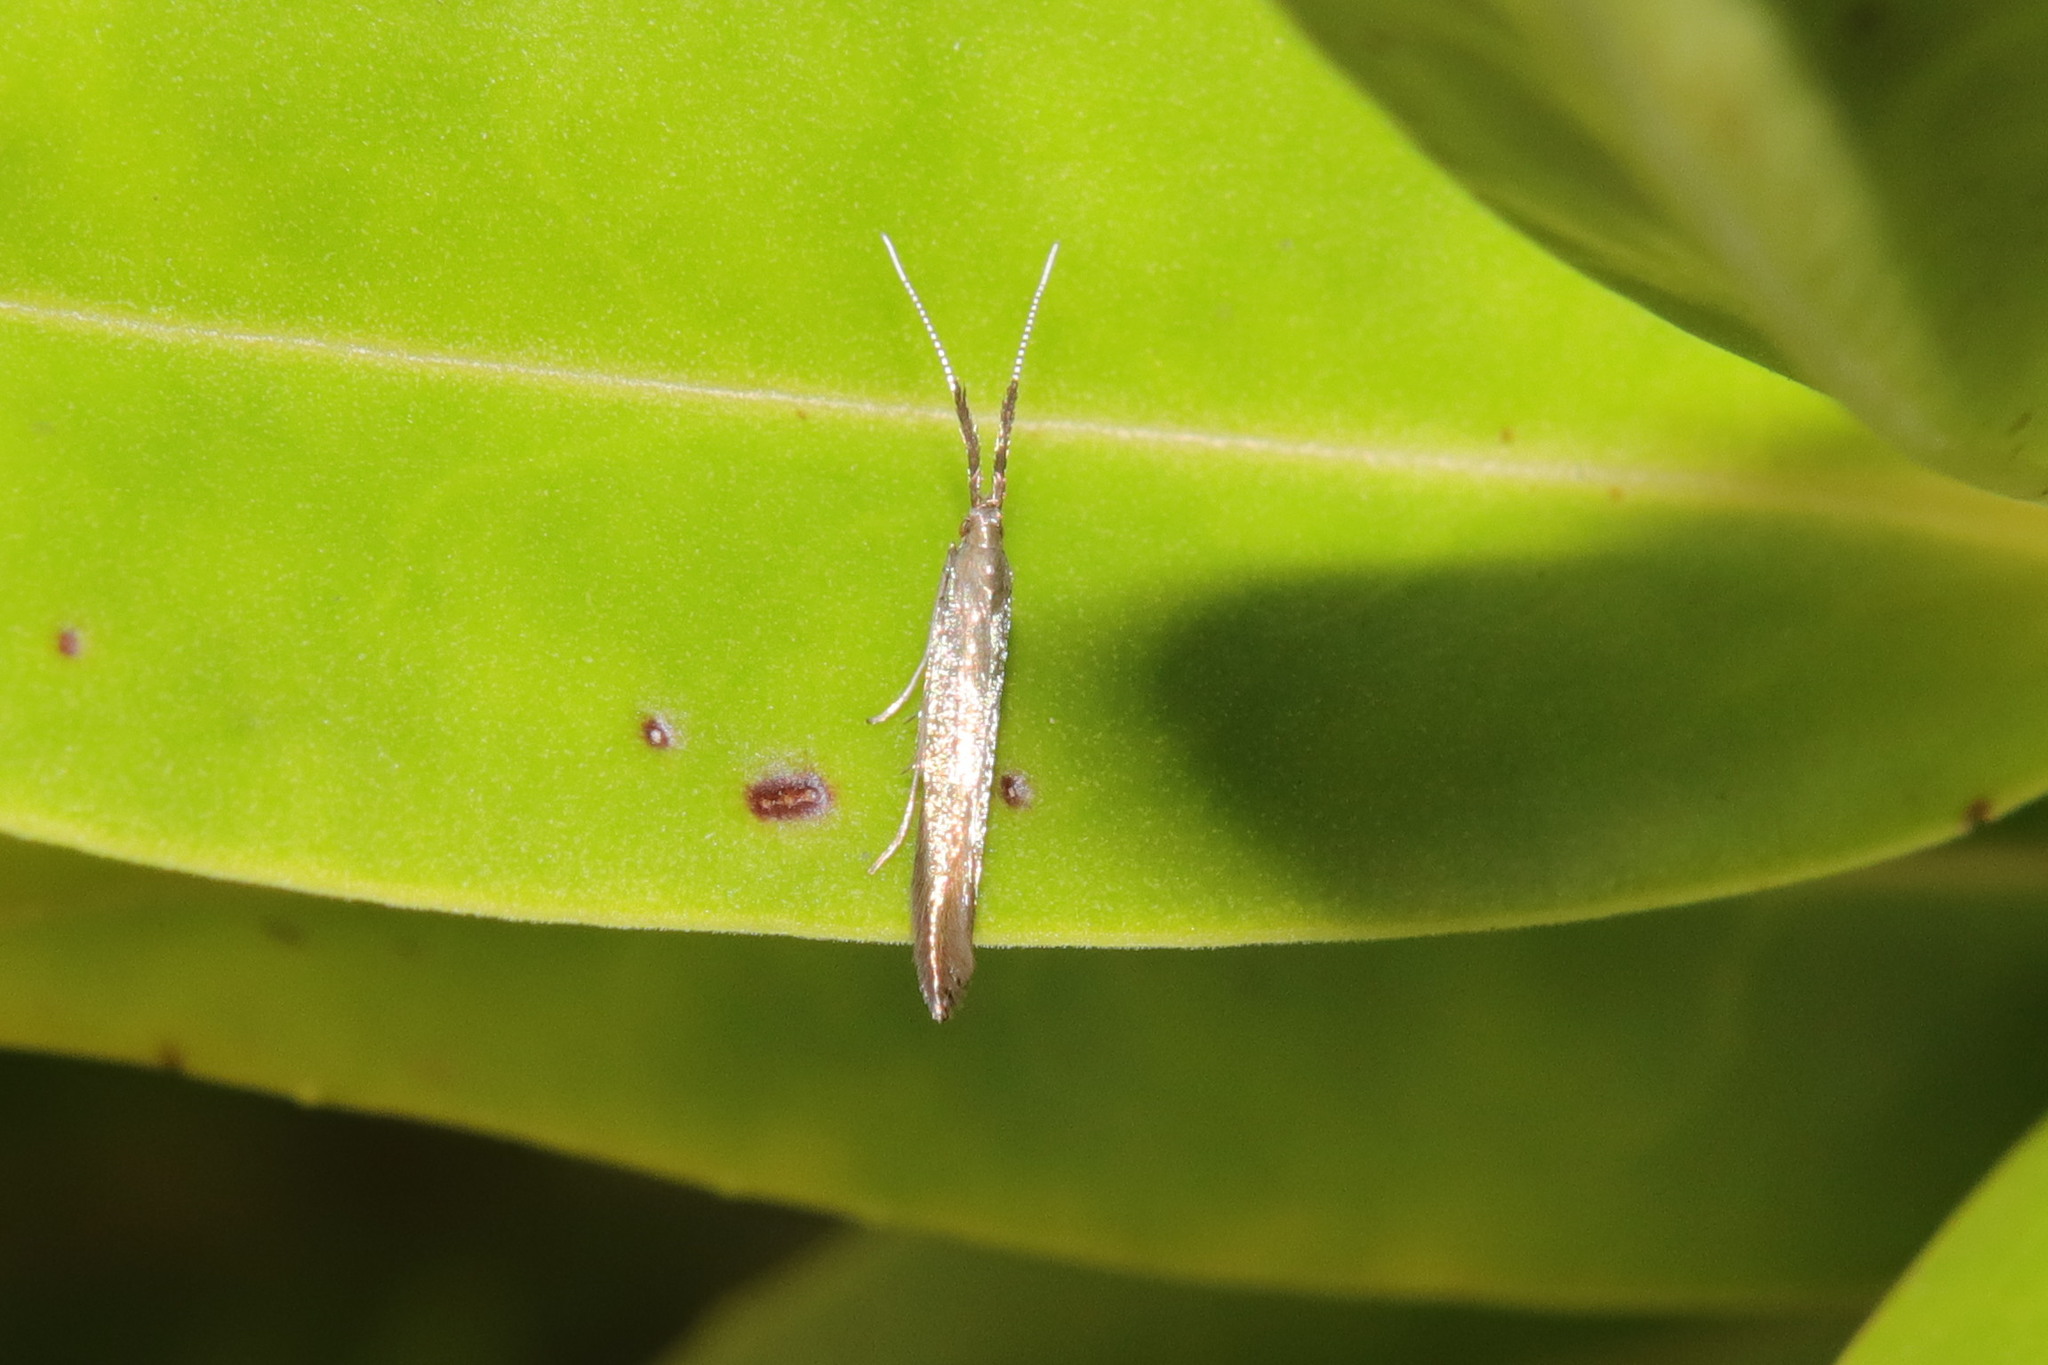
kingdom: Animalia
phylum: Arthropoda
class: Insecta
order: Lepidoptera
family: Coleophoridae
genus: Coleophora
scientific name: Coleophora mayrella
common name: Meadow case-bearer
